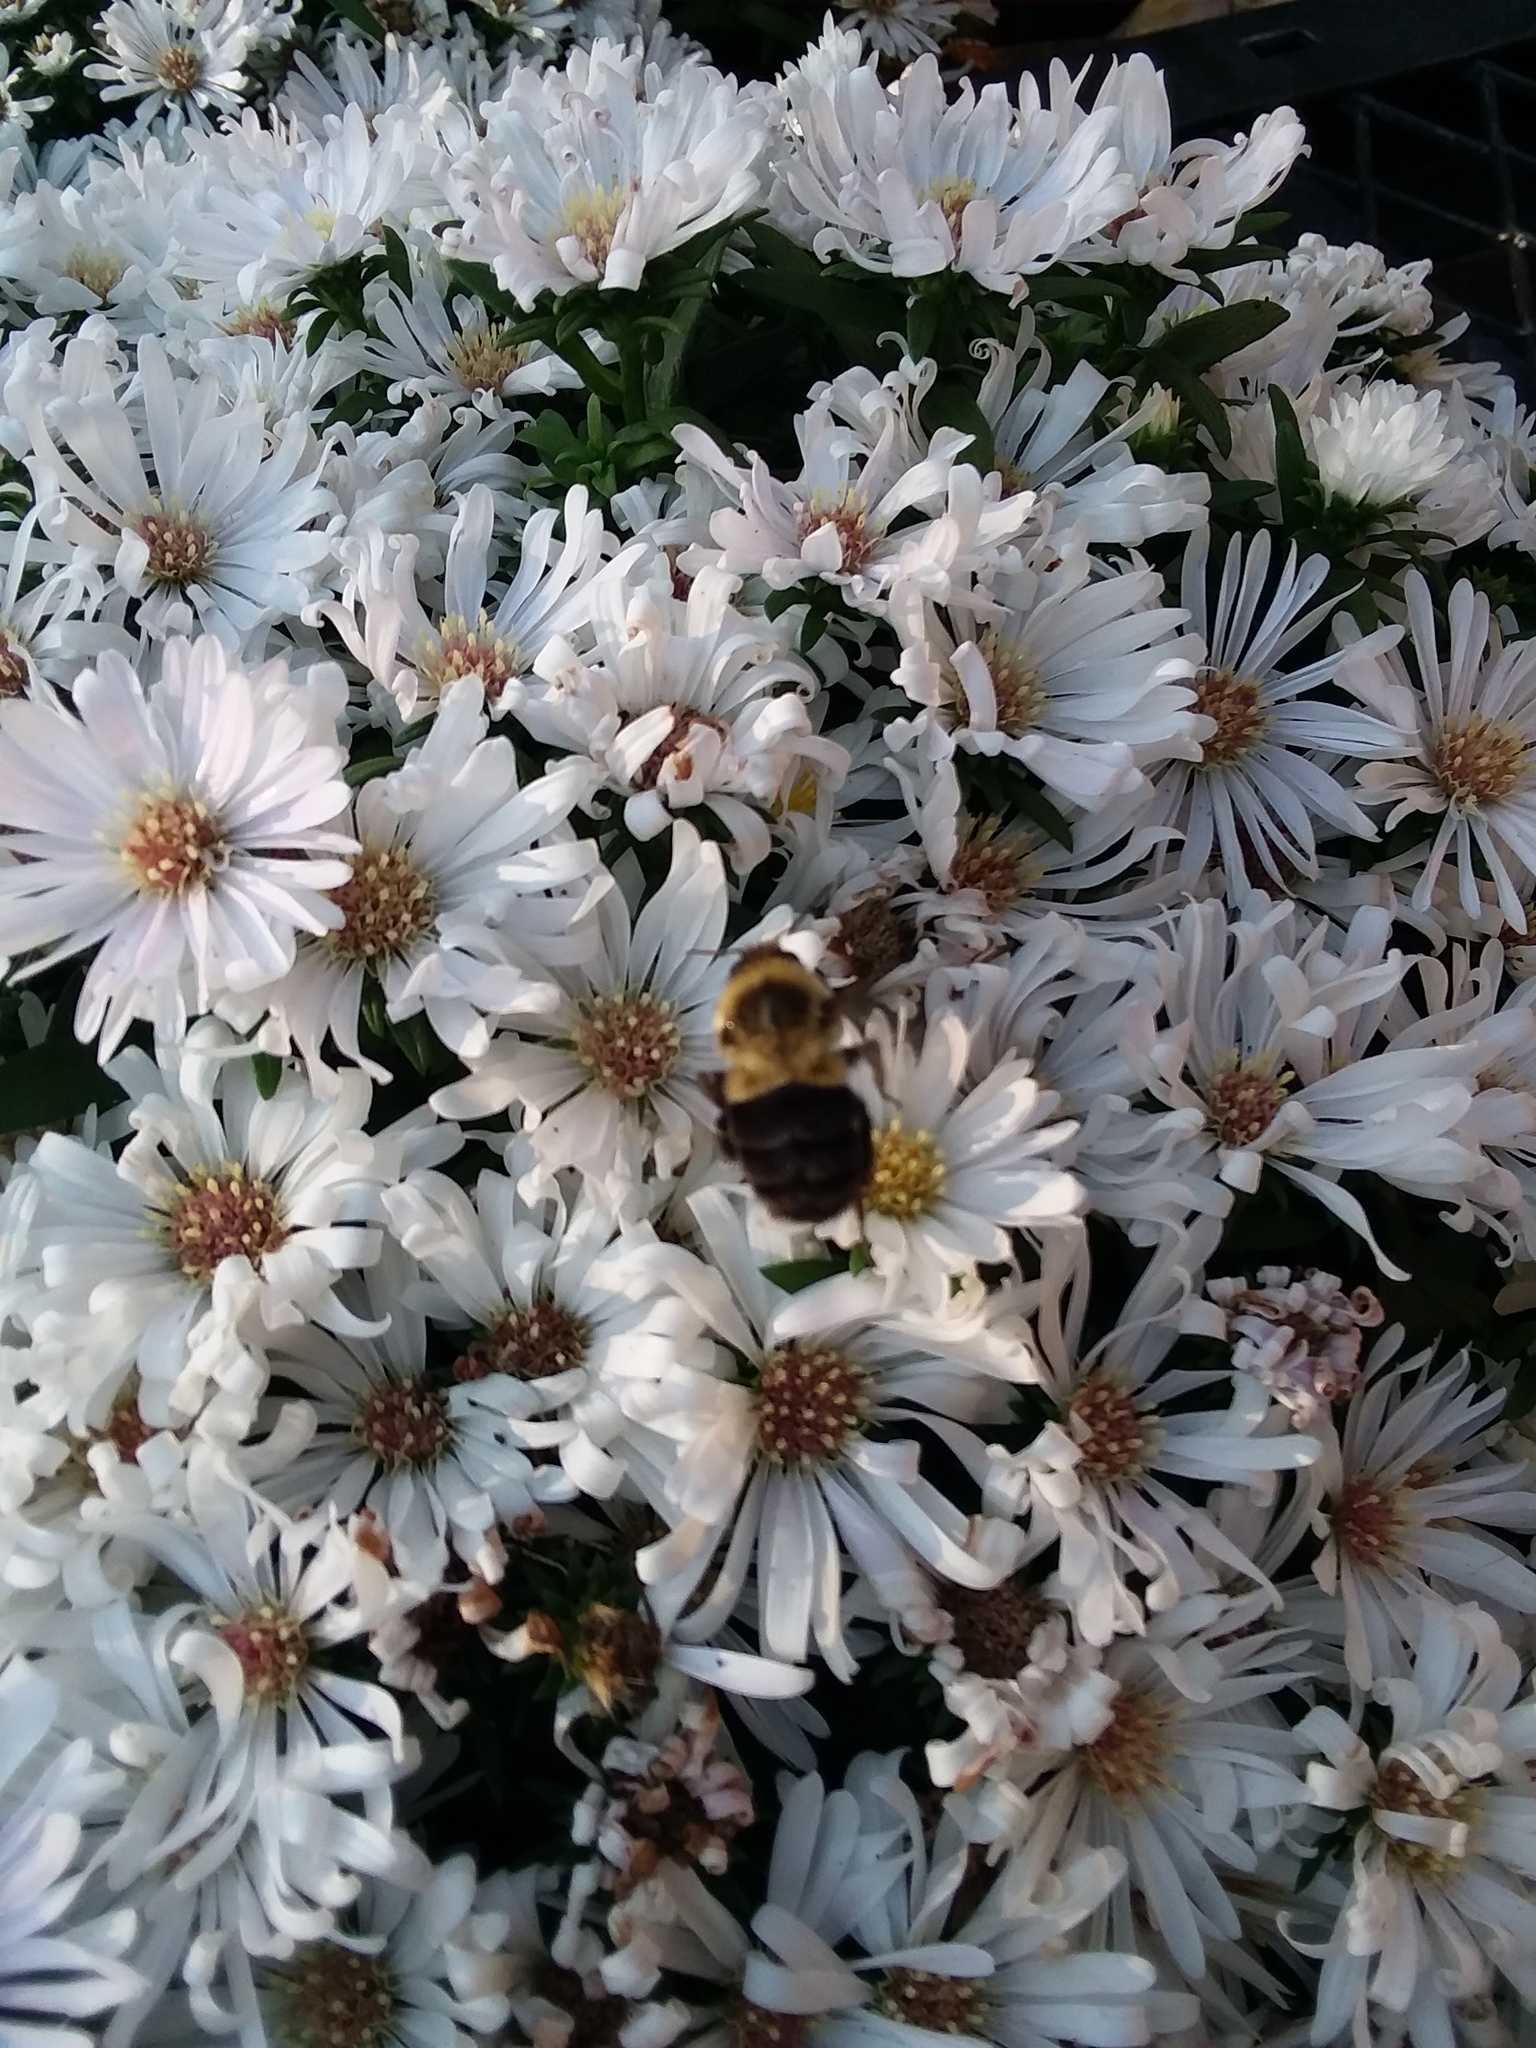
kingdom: Animalia
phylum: Arthropoda
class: Insecta
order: Hymenoptera
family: Apidae
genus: Bombus
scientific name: Bombus impatiens
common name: Common eastern bumble bee
